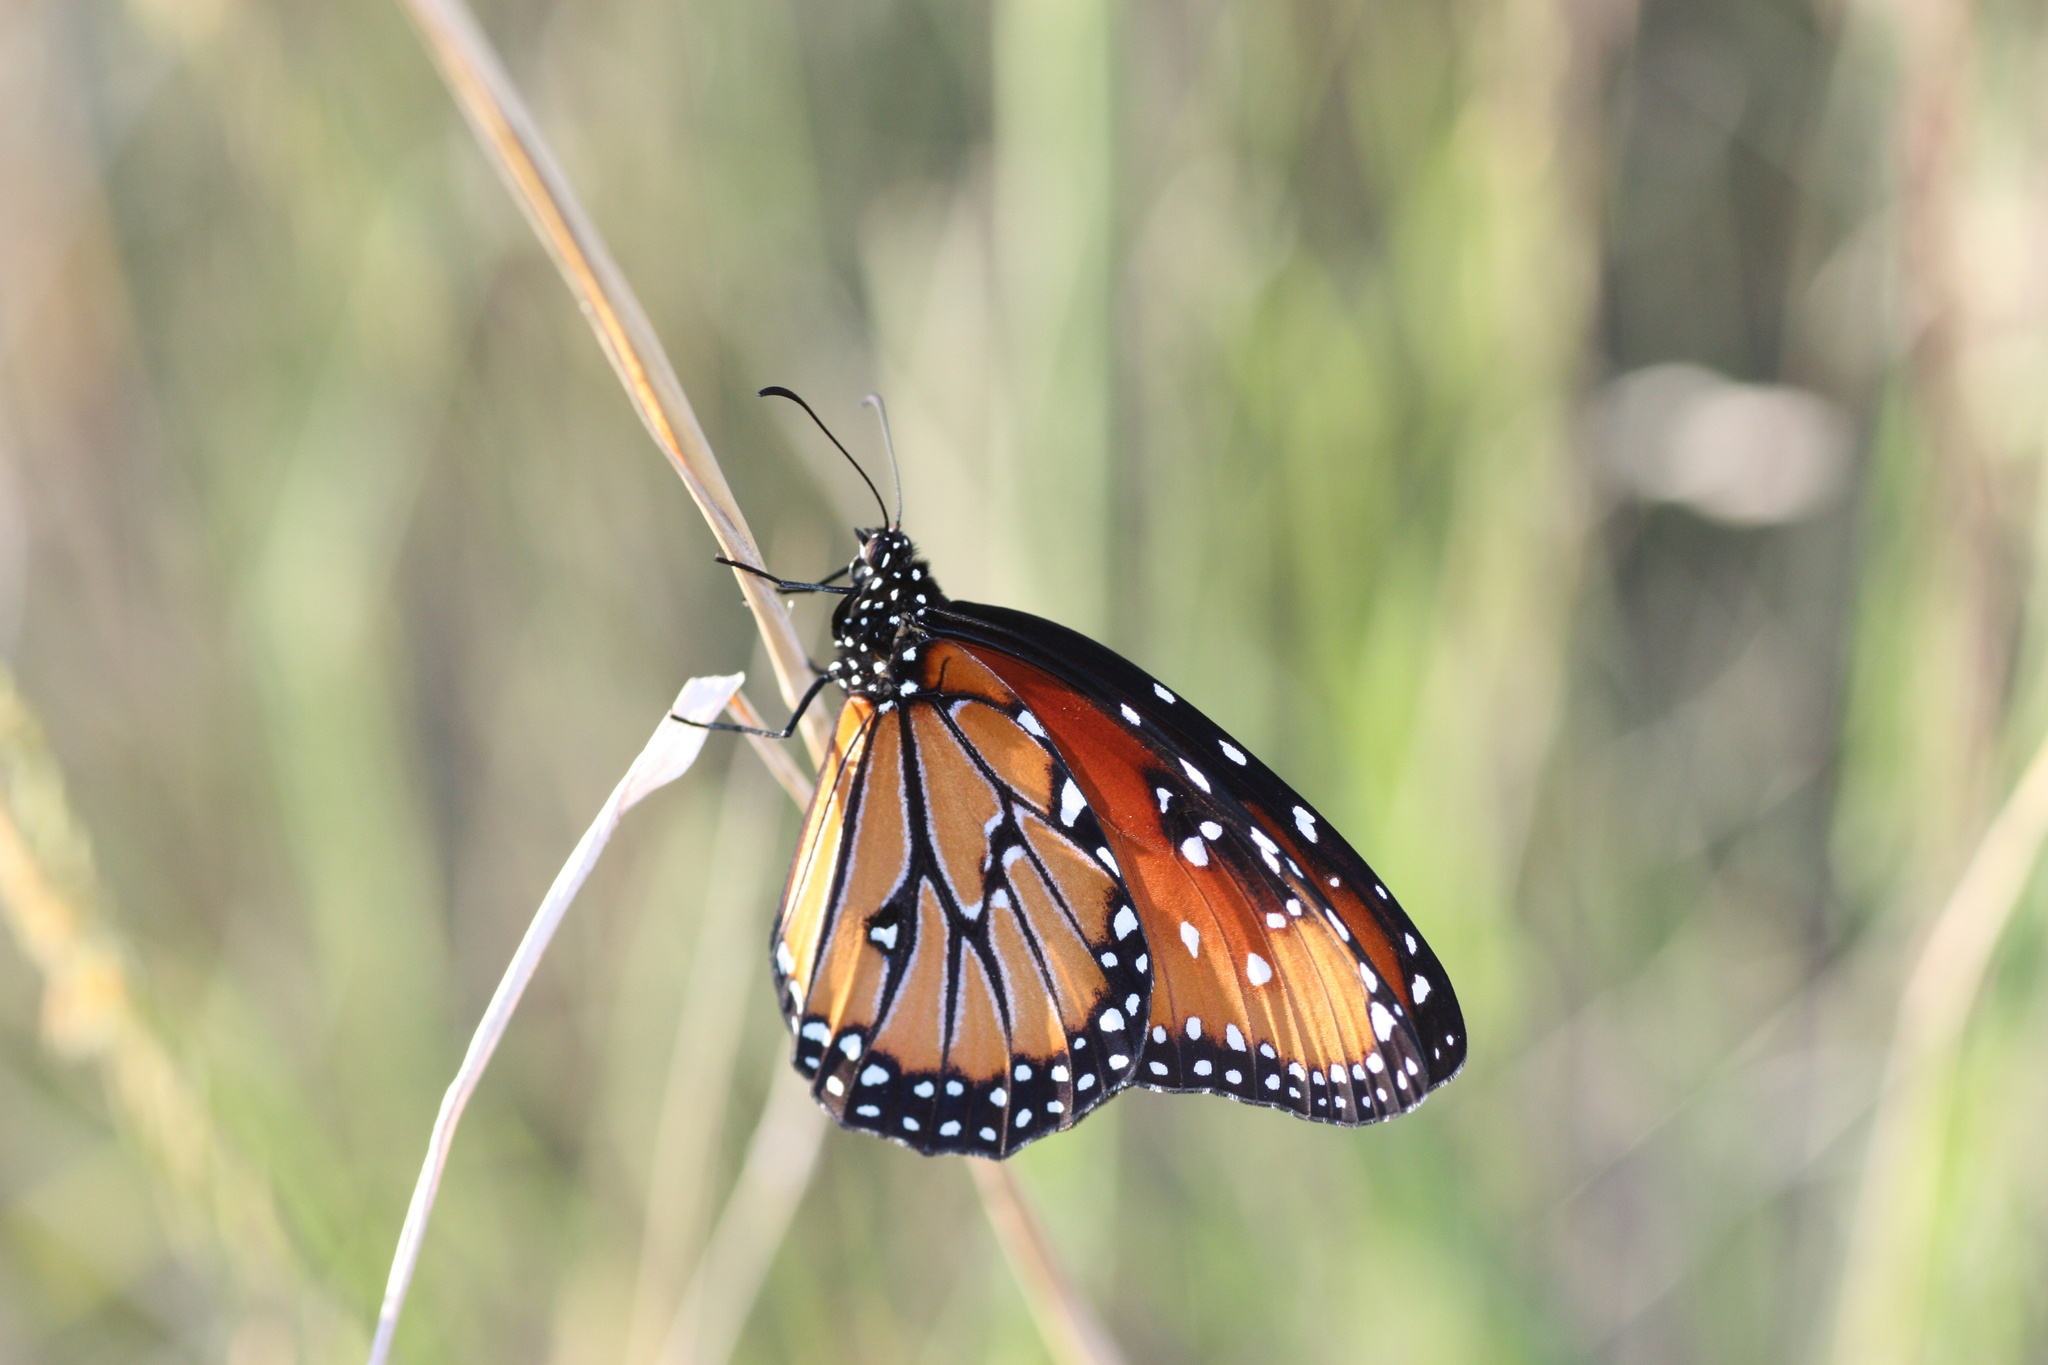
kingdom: Animalia
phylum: Arthropoda
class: Insecta
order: Lepidoptera
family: Nymphalidae
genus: Danaus
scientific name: Danaus gilippus
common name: Queen
